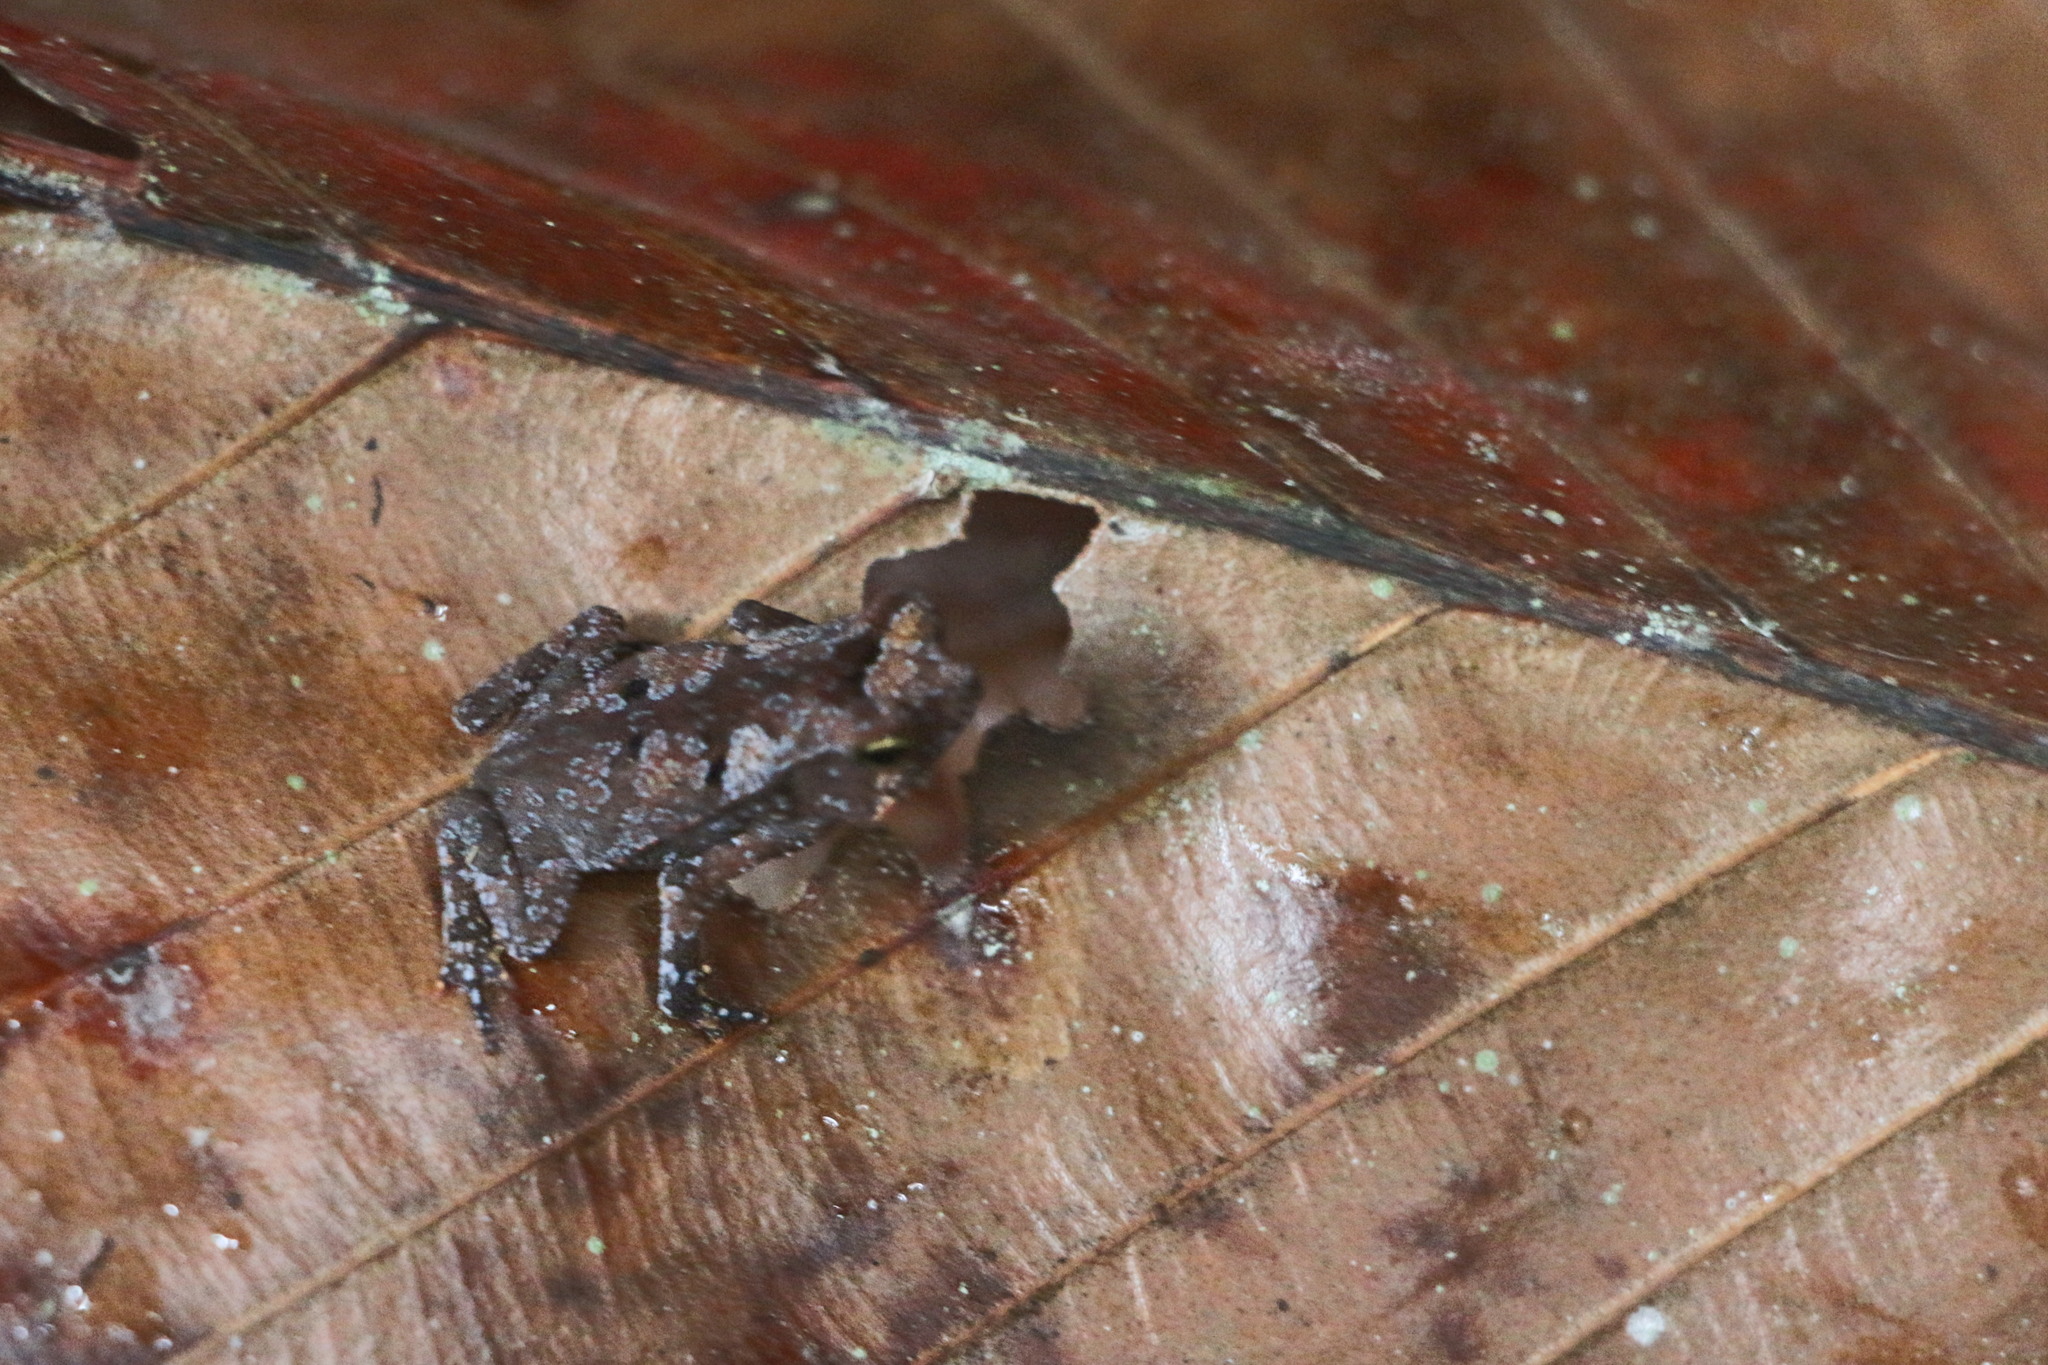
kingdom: Animalia
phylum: Chordata
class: Amphibia
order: Anura
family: Bufonidae
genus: Rhinella
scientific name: Rhinella margaritifera
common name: Mitred toad
